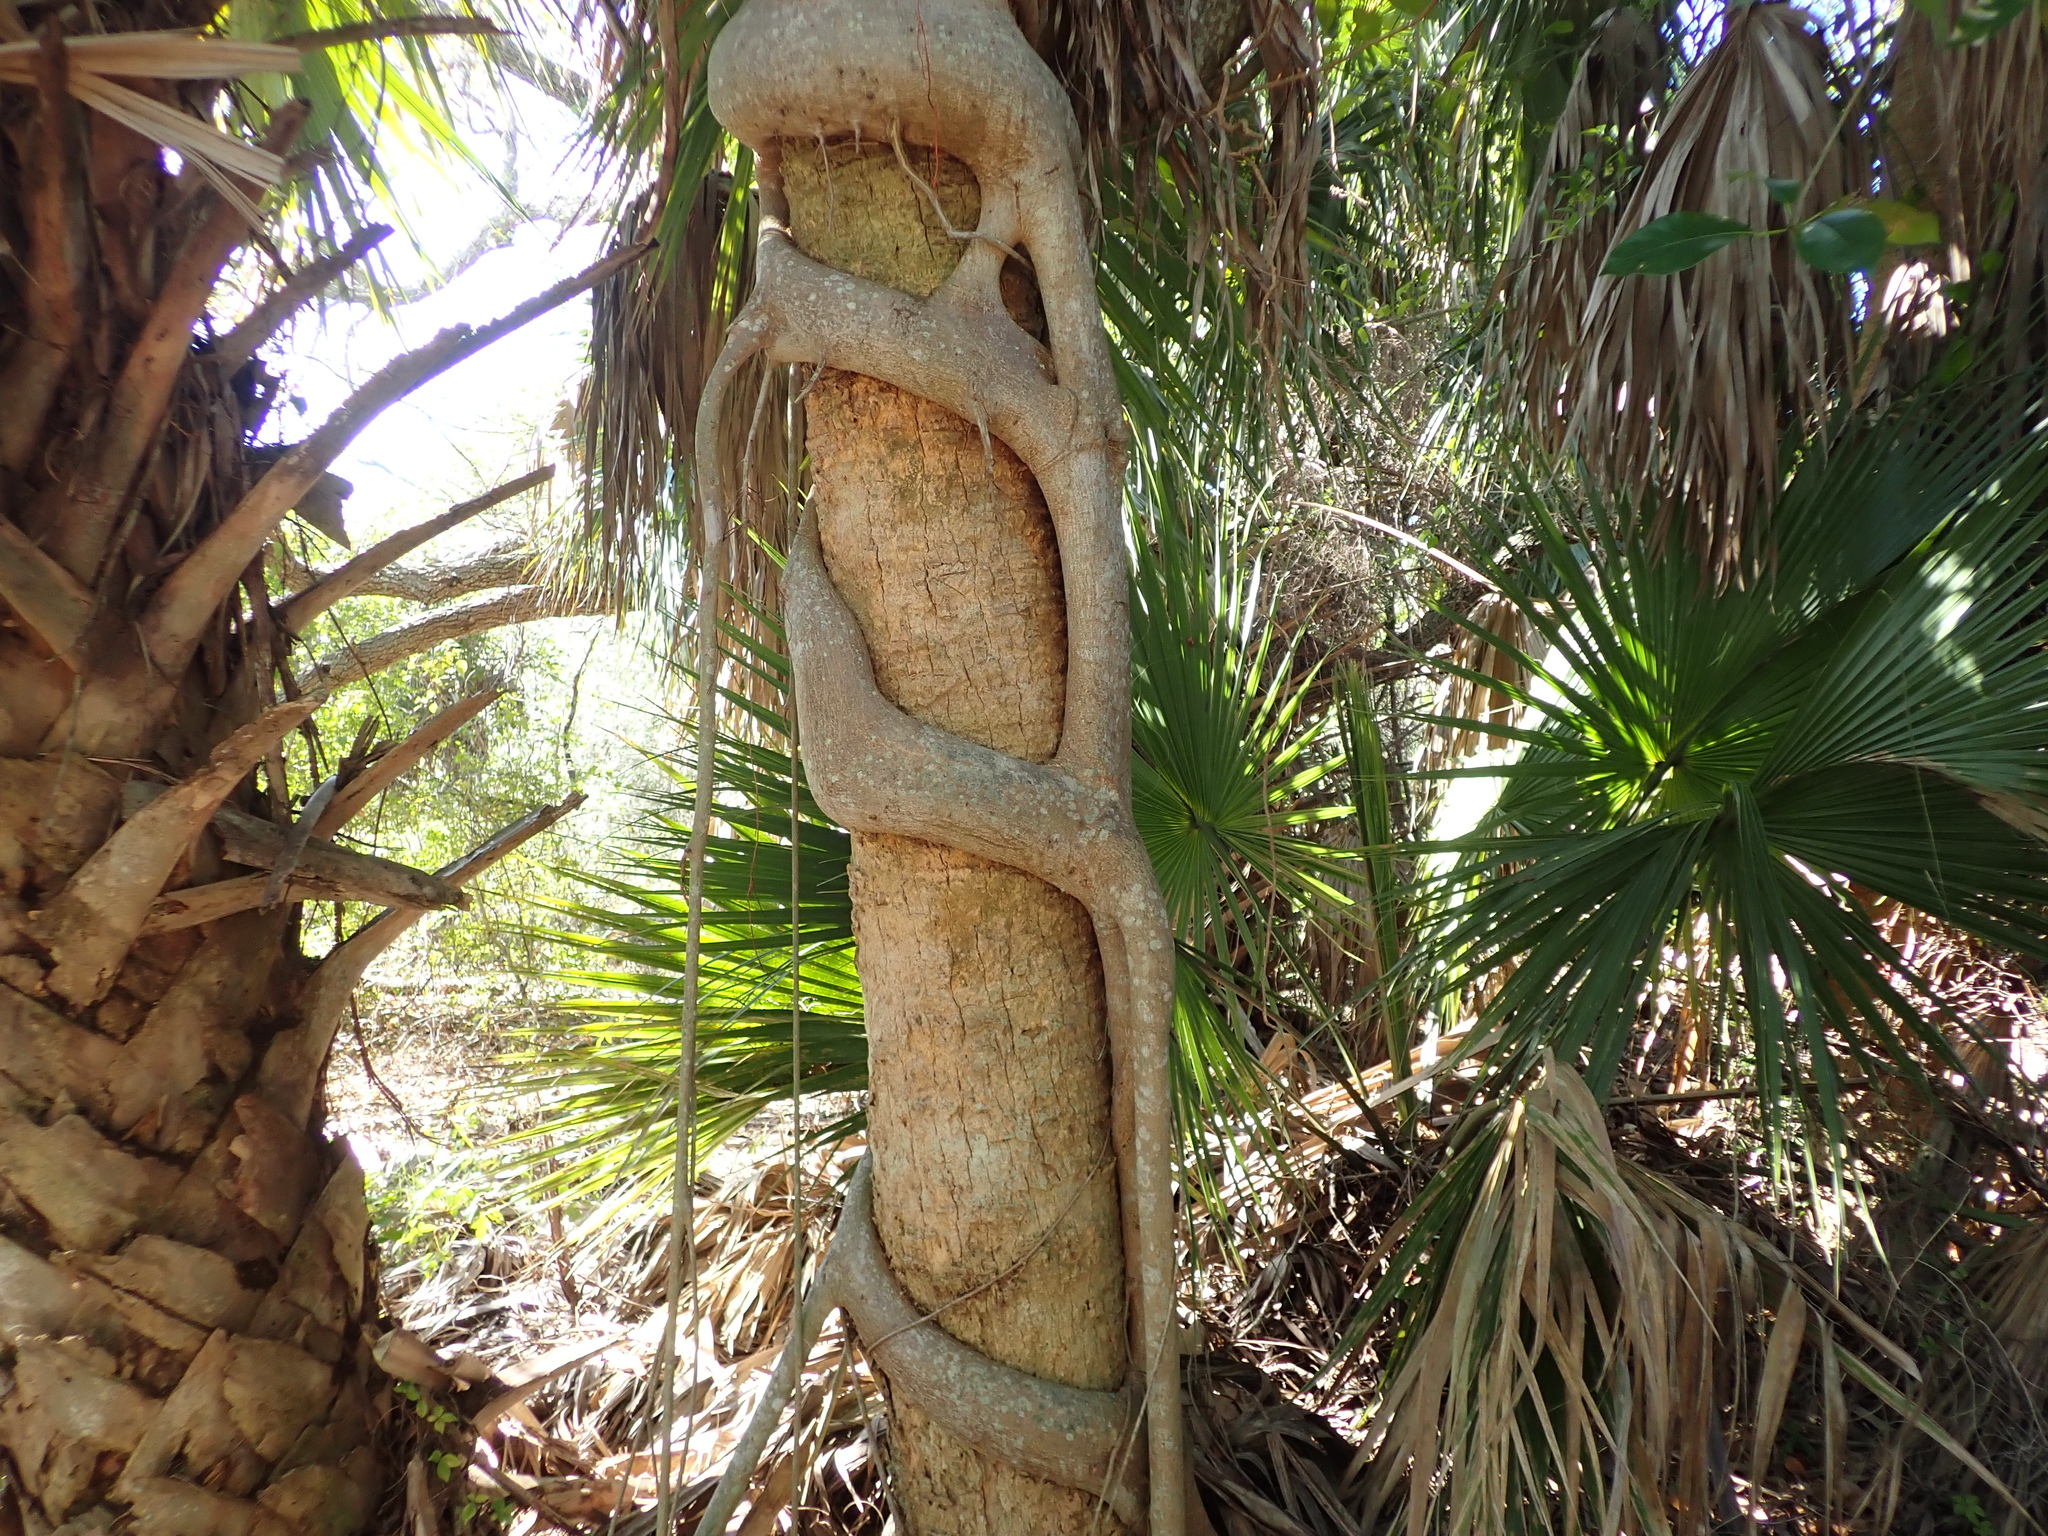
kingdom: Plantae
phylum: Tracheophyta
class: Magnoliopsida
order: Rosales
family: Moraceae
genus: Ficus
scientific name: Ficus aurea
